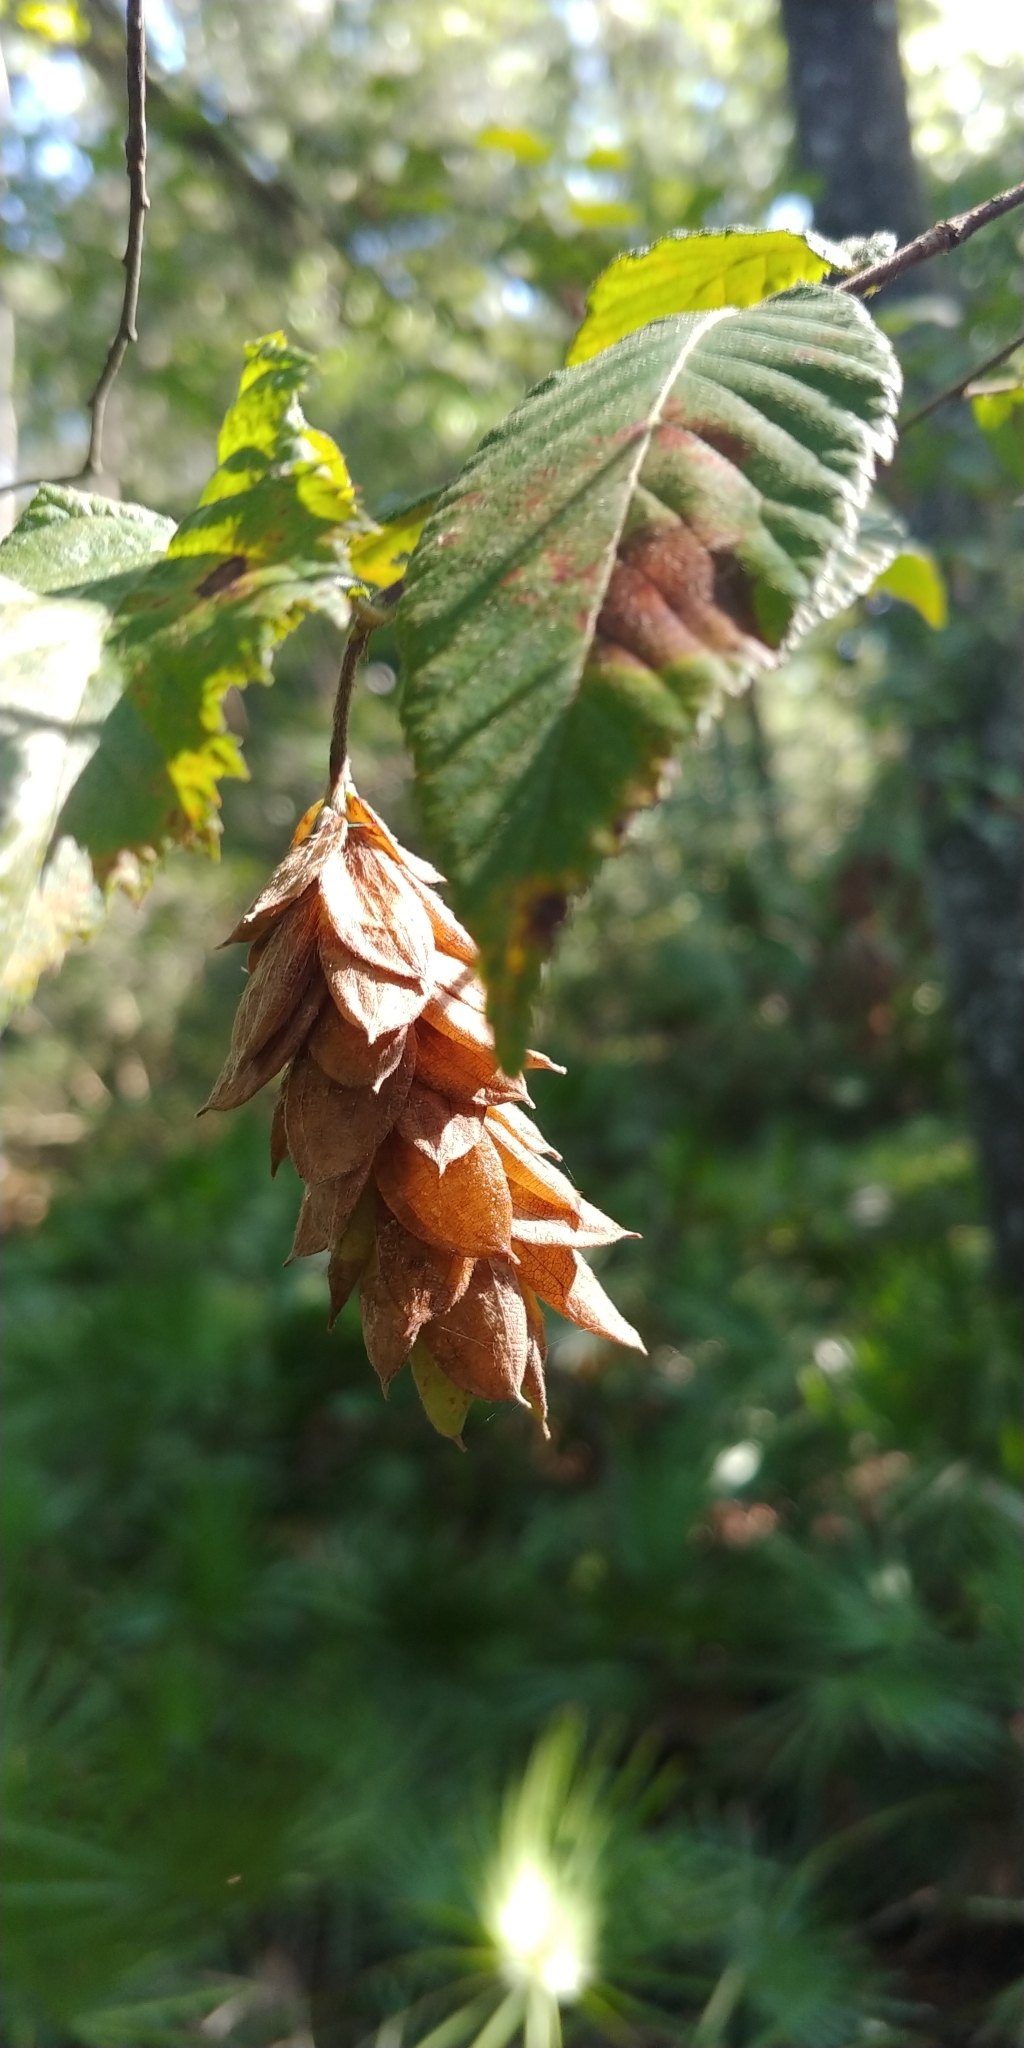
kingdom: Plantae
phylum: Tracheophyta
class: Magnoliopsida
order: Fagales
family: Betulaceae
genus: Ostrya
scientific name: Ostrya virginiana
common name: Ironwood
